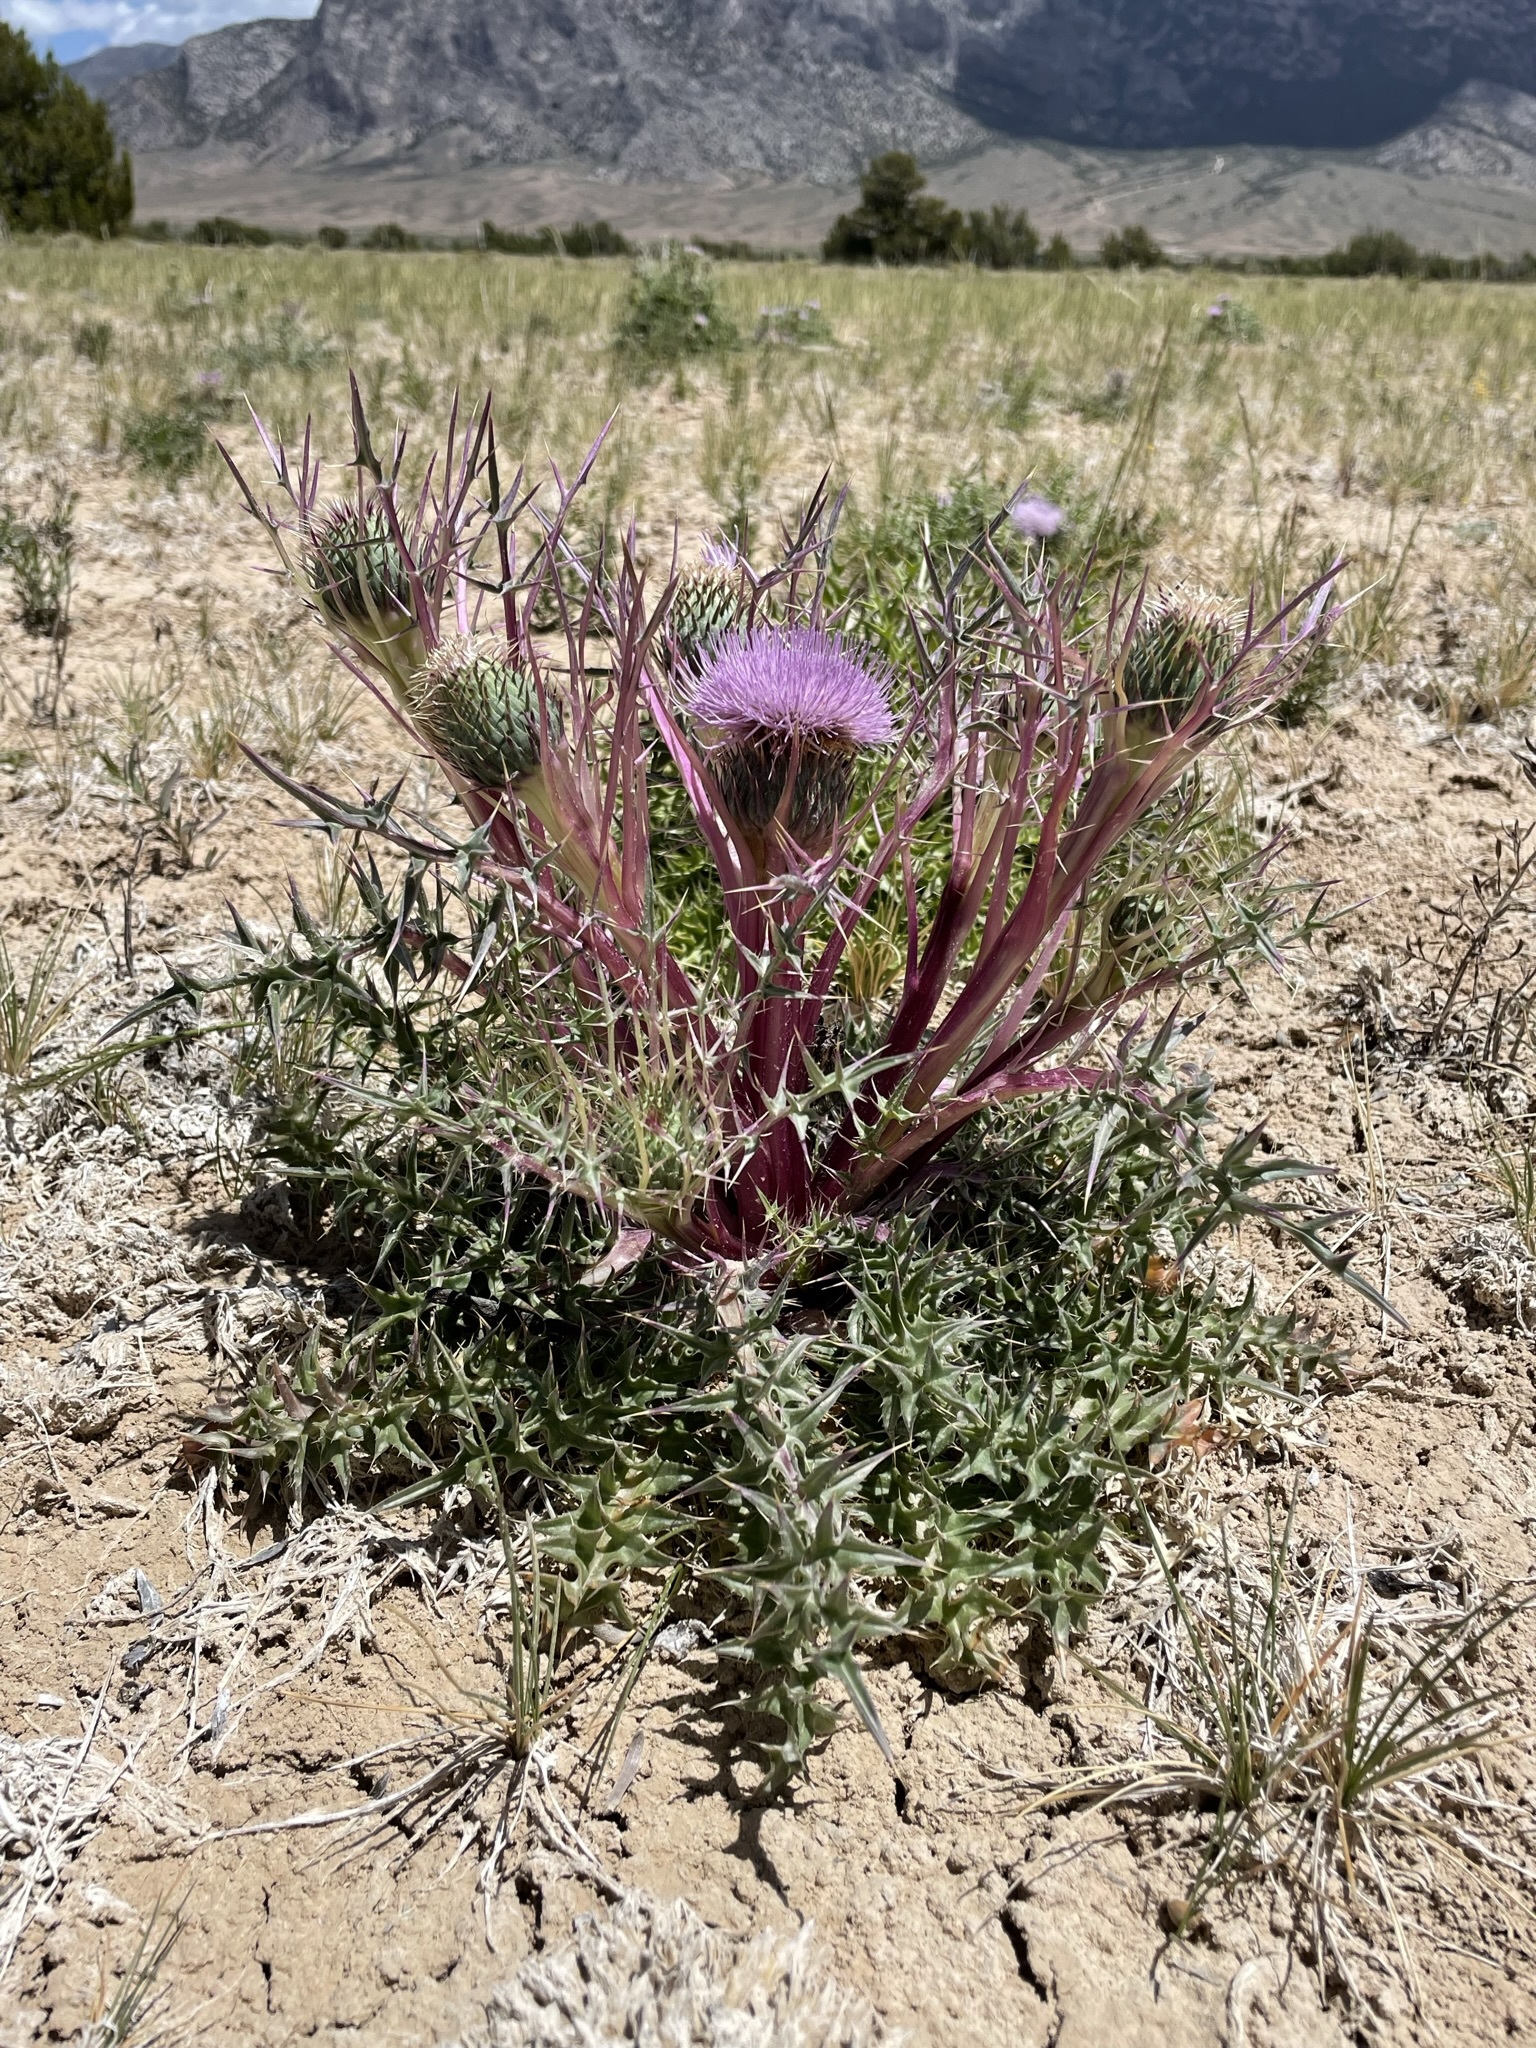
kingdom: Plantae
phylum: Tracheophyta
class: Magnoliopsida
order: Asterales
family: Asteraceae
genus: Cirsium
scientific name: Cirsium scariosum
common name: Meadow thistle
